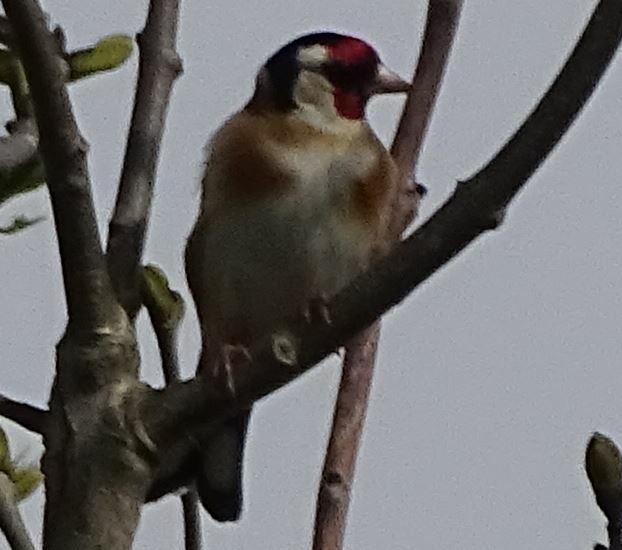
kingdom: Animalia
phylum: Chordata
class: Aves
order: Passeriformes
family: Fringillidae
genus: Carduelis
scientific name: Carduelis carduelis
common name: European goldfinch
